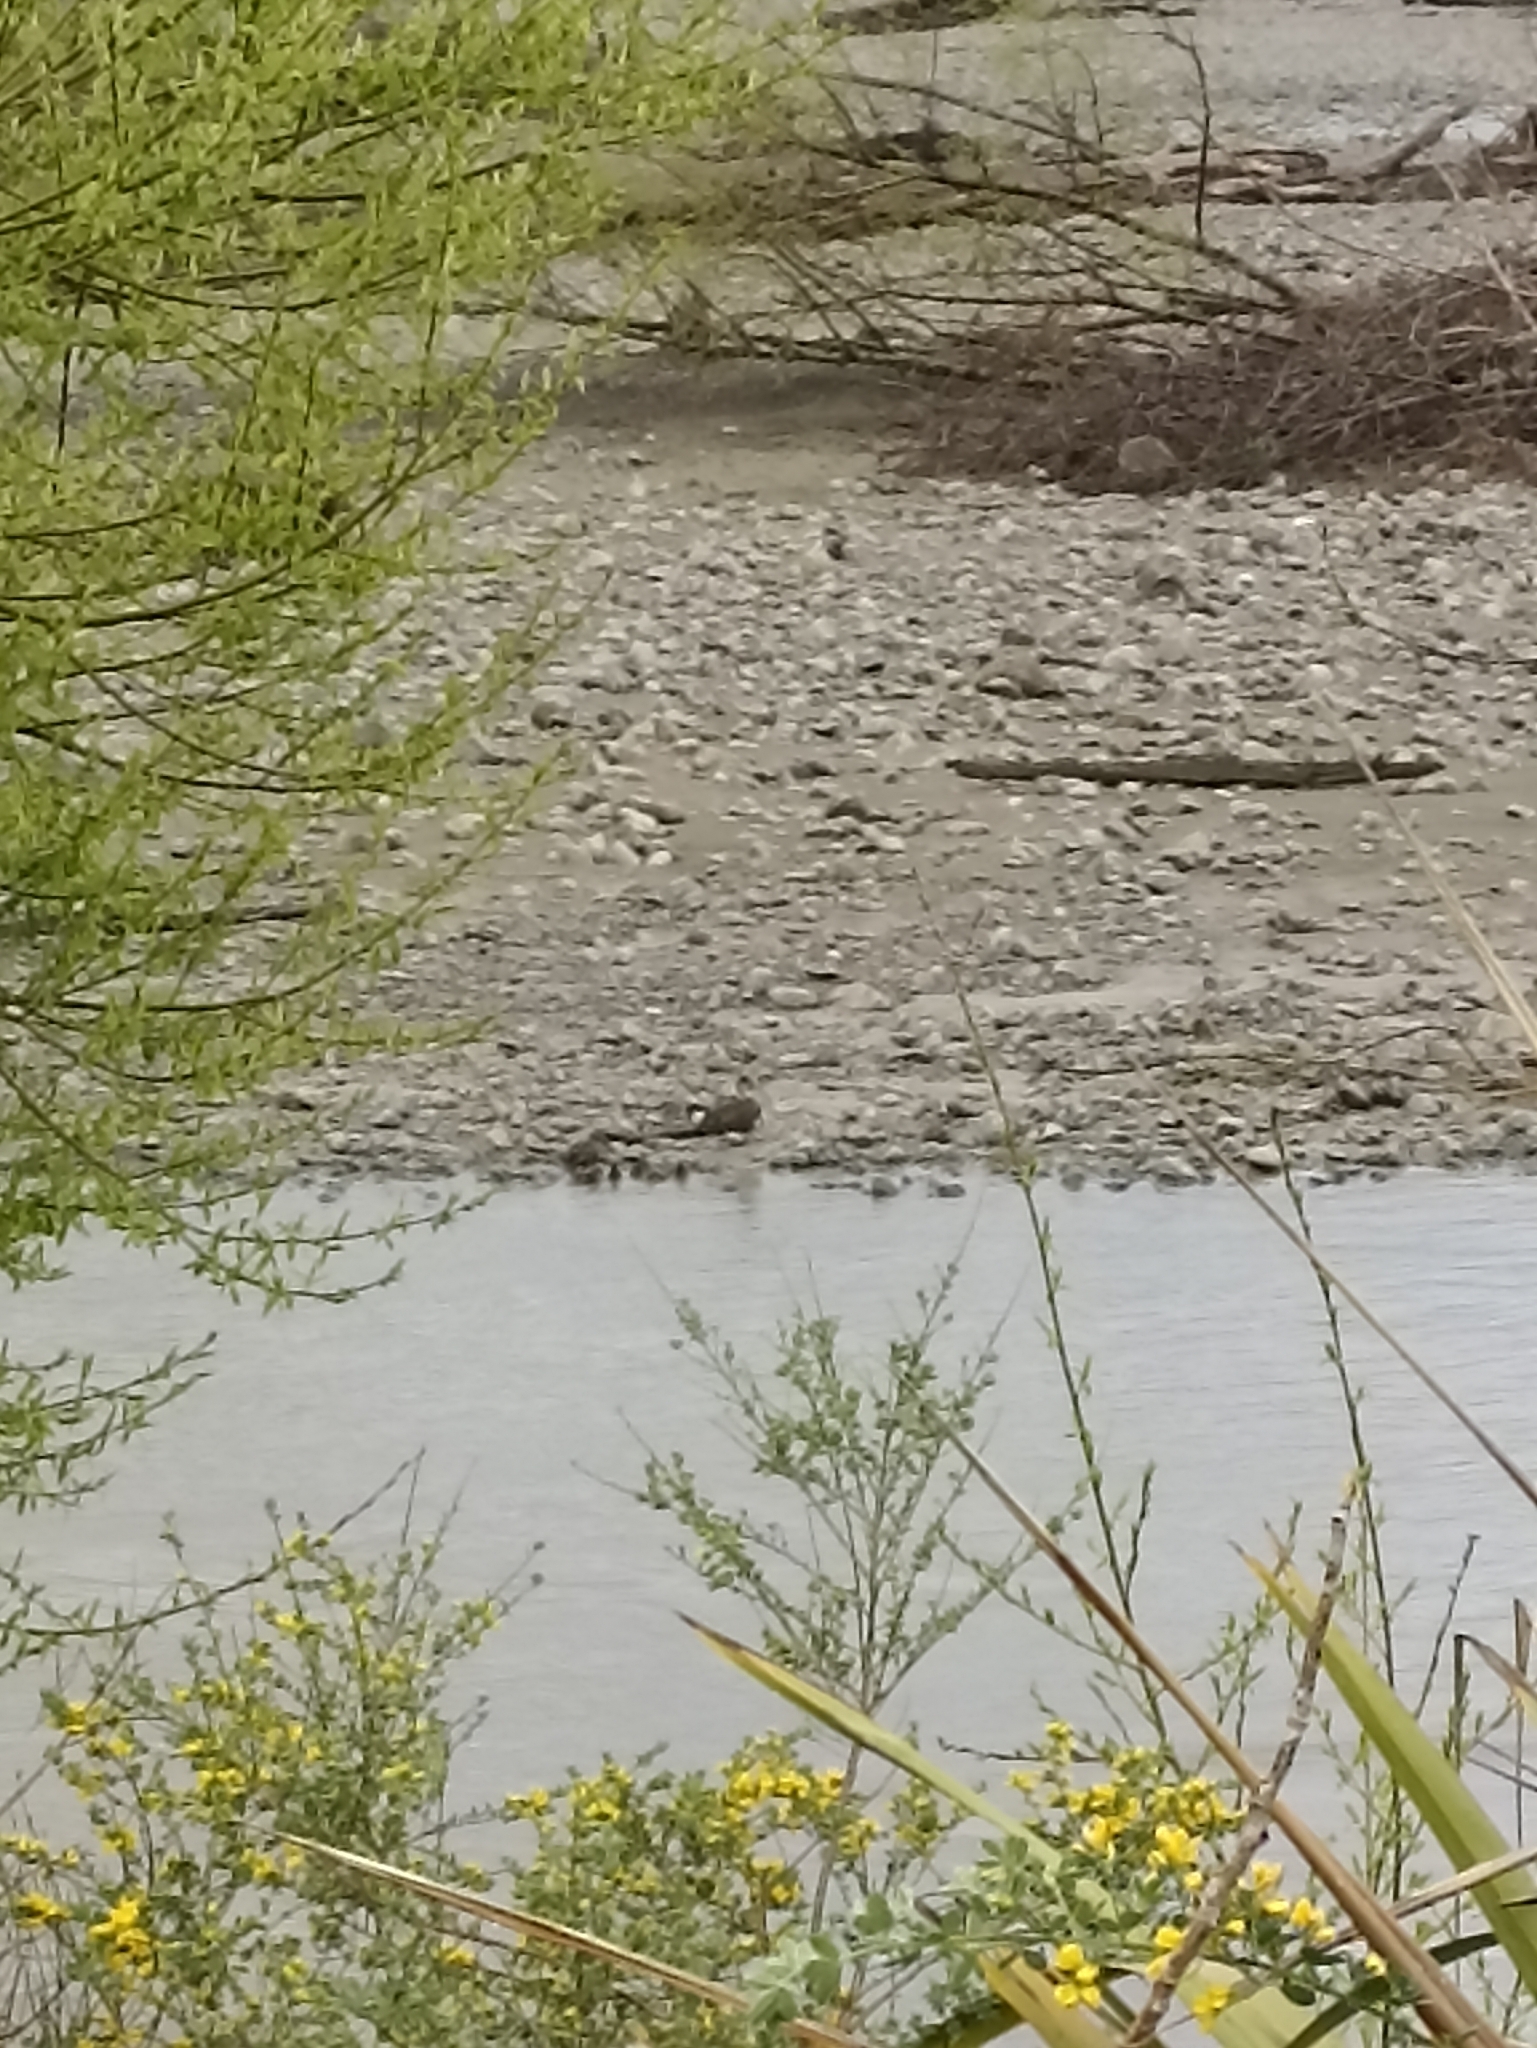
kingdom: Animalia
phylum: Chordata
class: Aves
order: Anseriformes
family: Anatidae
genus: Anas
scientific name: Anas gracilis
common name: Grey teal
